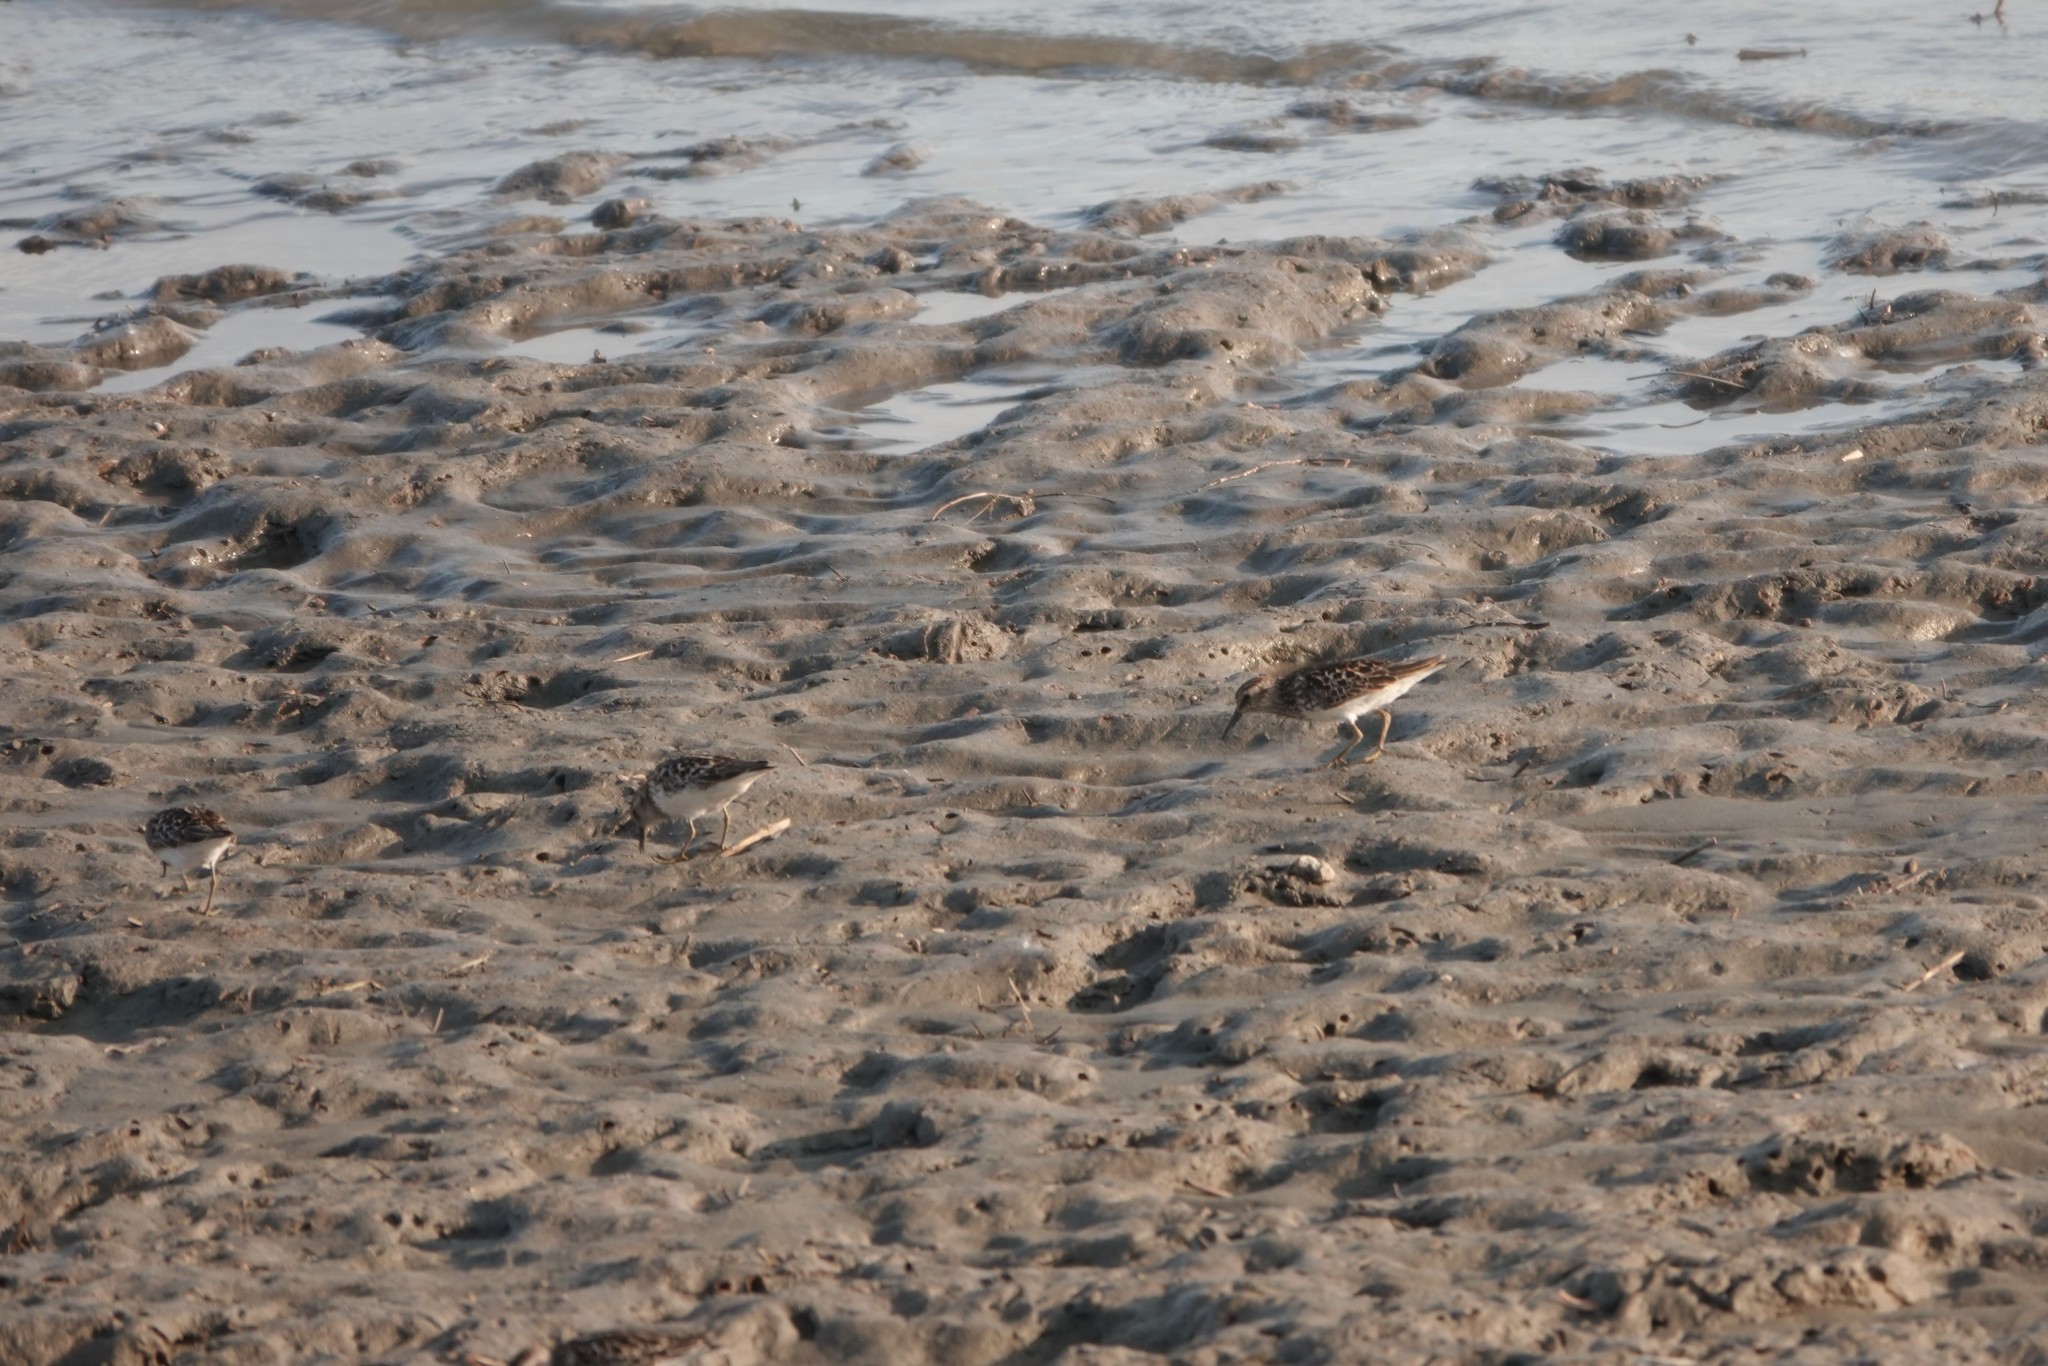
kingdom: Animalia
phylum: Chordata
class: Aves
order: Charadriiformes
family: Scolopacidae
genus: Calidris
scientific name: Calidris minutilla
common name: Least sandpiper
